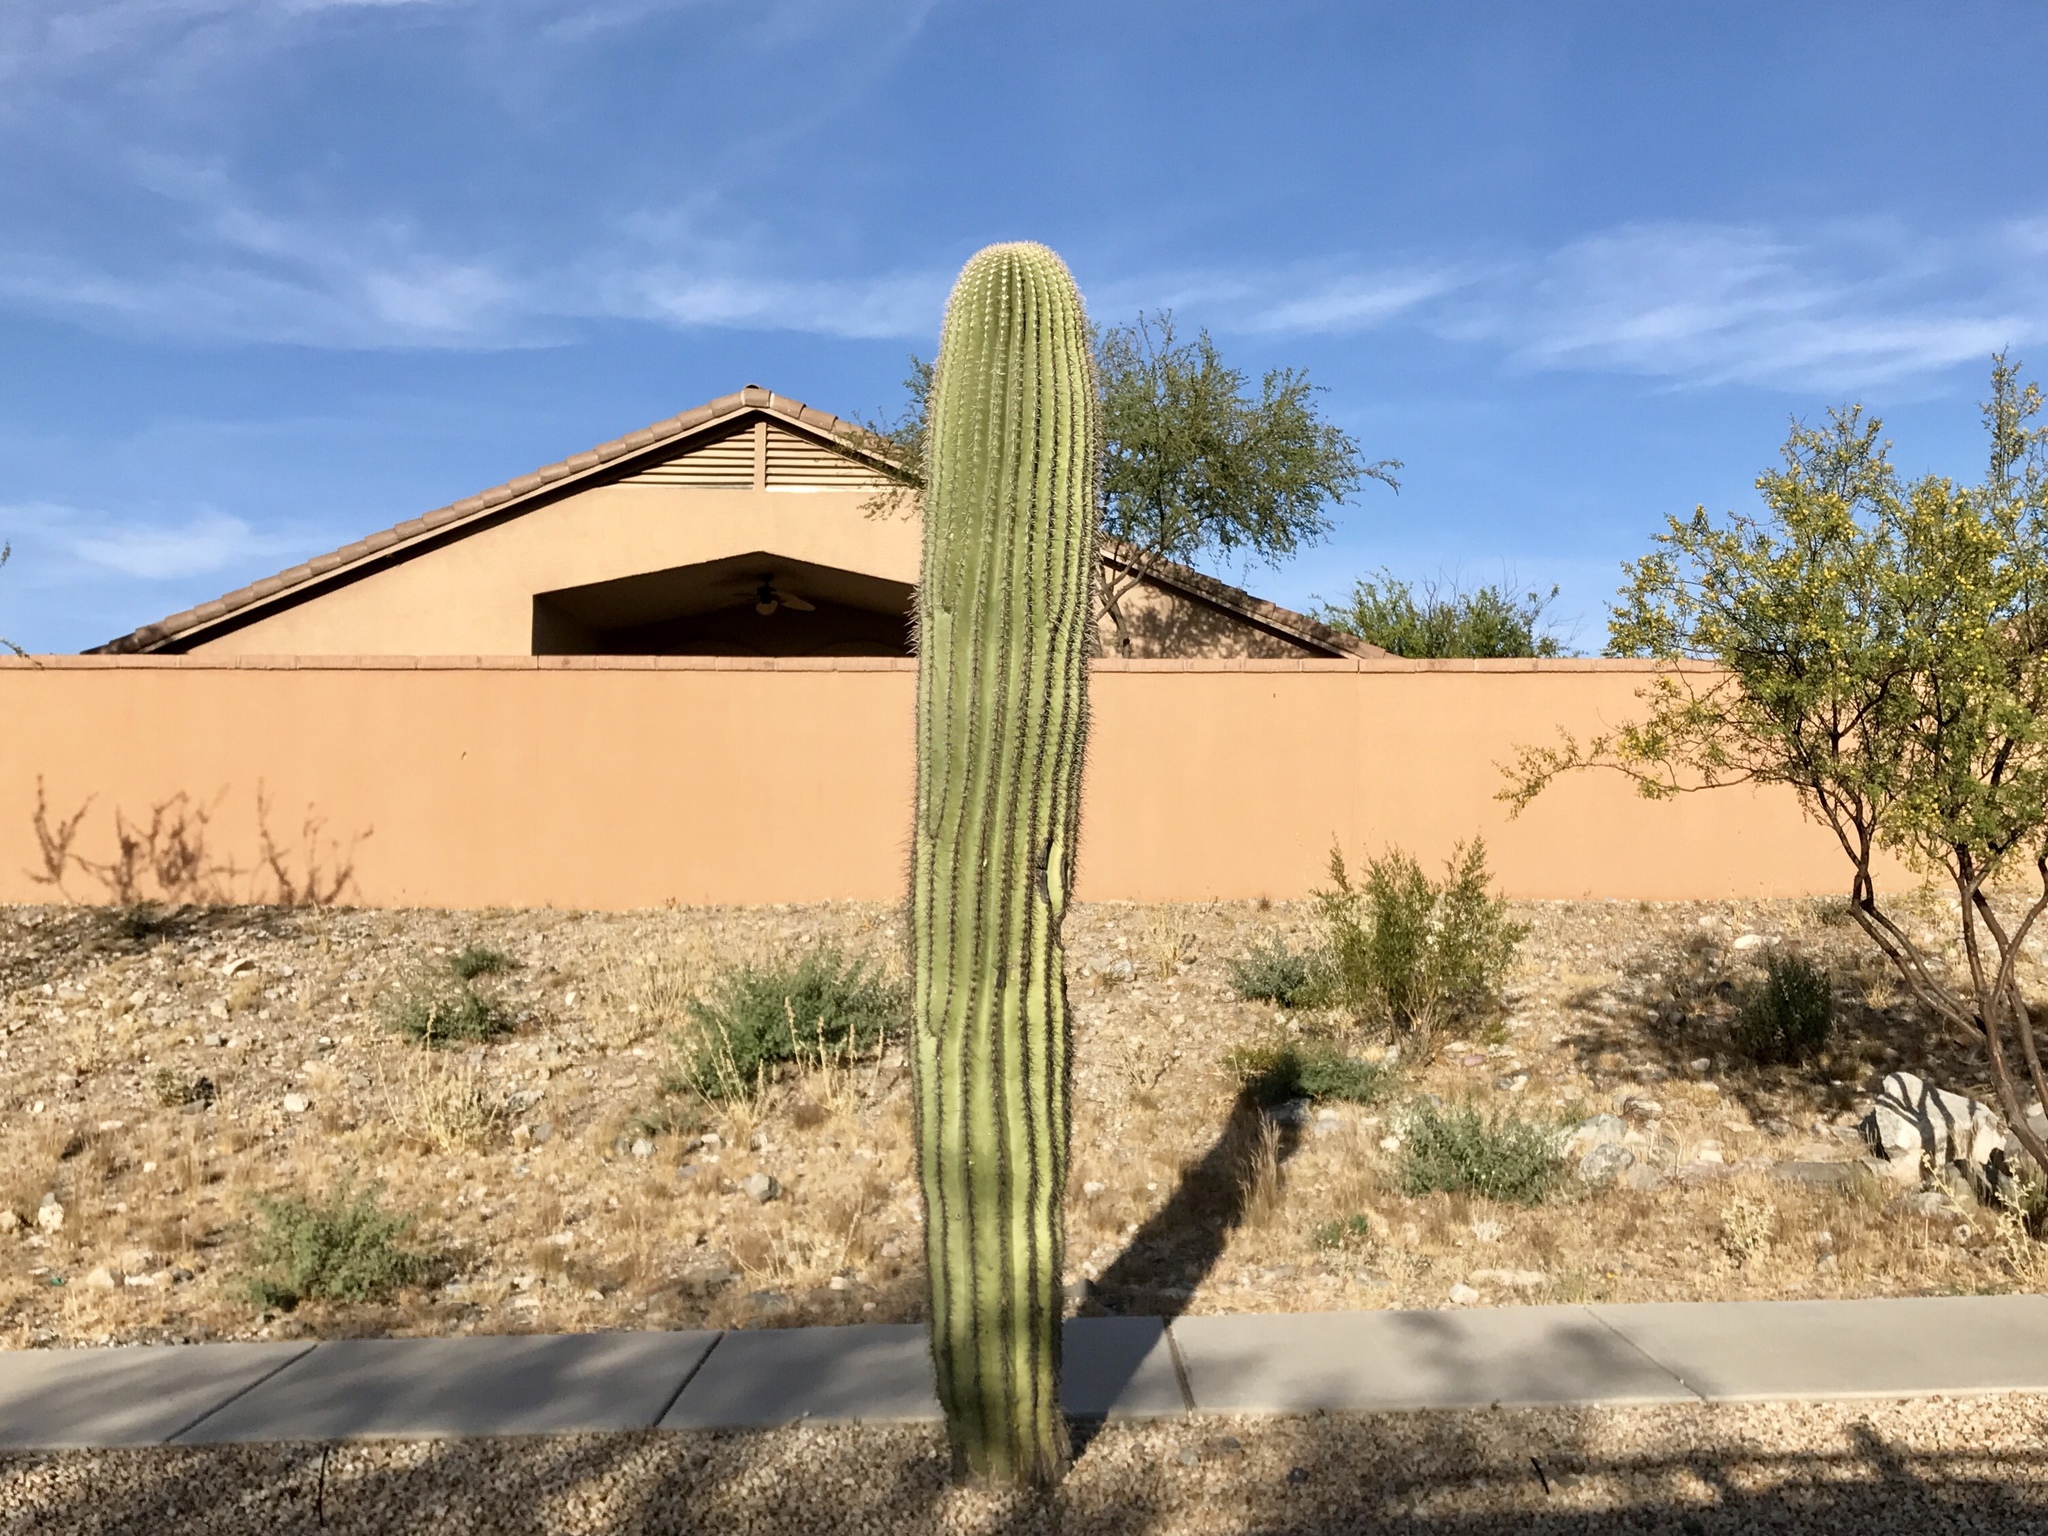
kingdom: Plantae
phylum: Tracheophyta
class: Magnoliopsida
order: Caryophyllales
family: Cactaceae
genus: Carnegiea
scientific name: Carnegiea gigantea
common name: Saguaro
